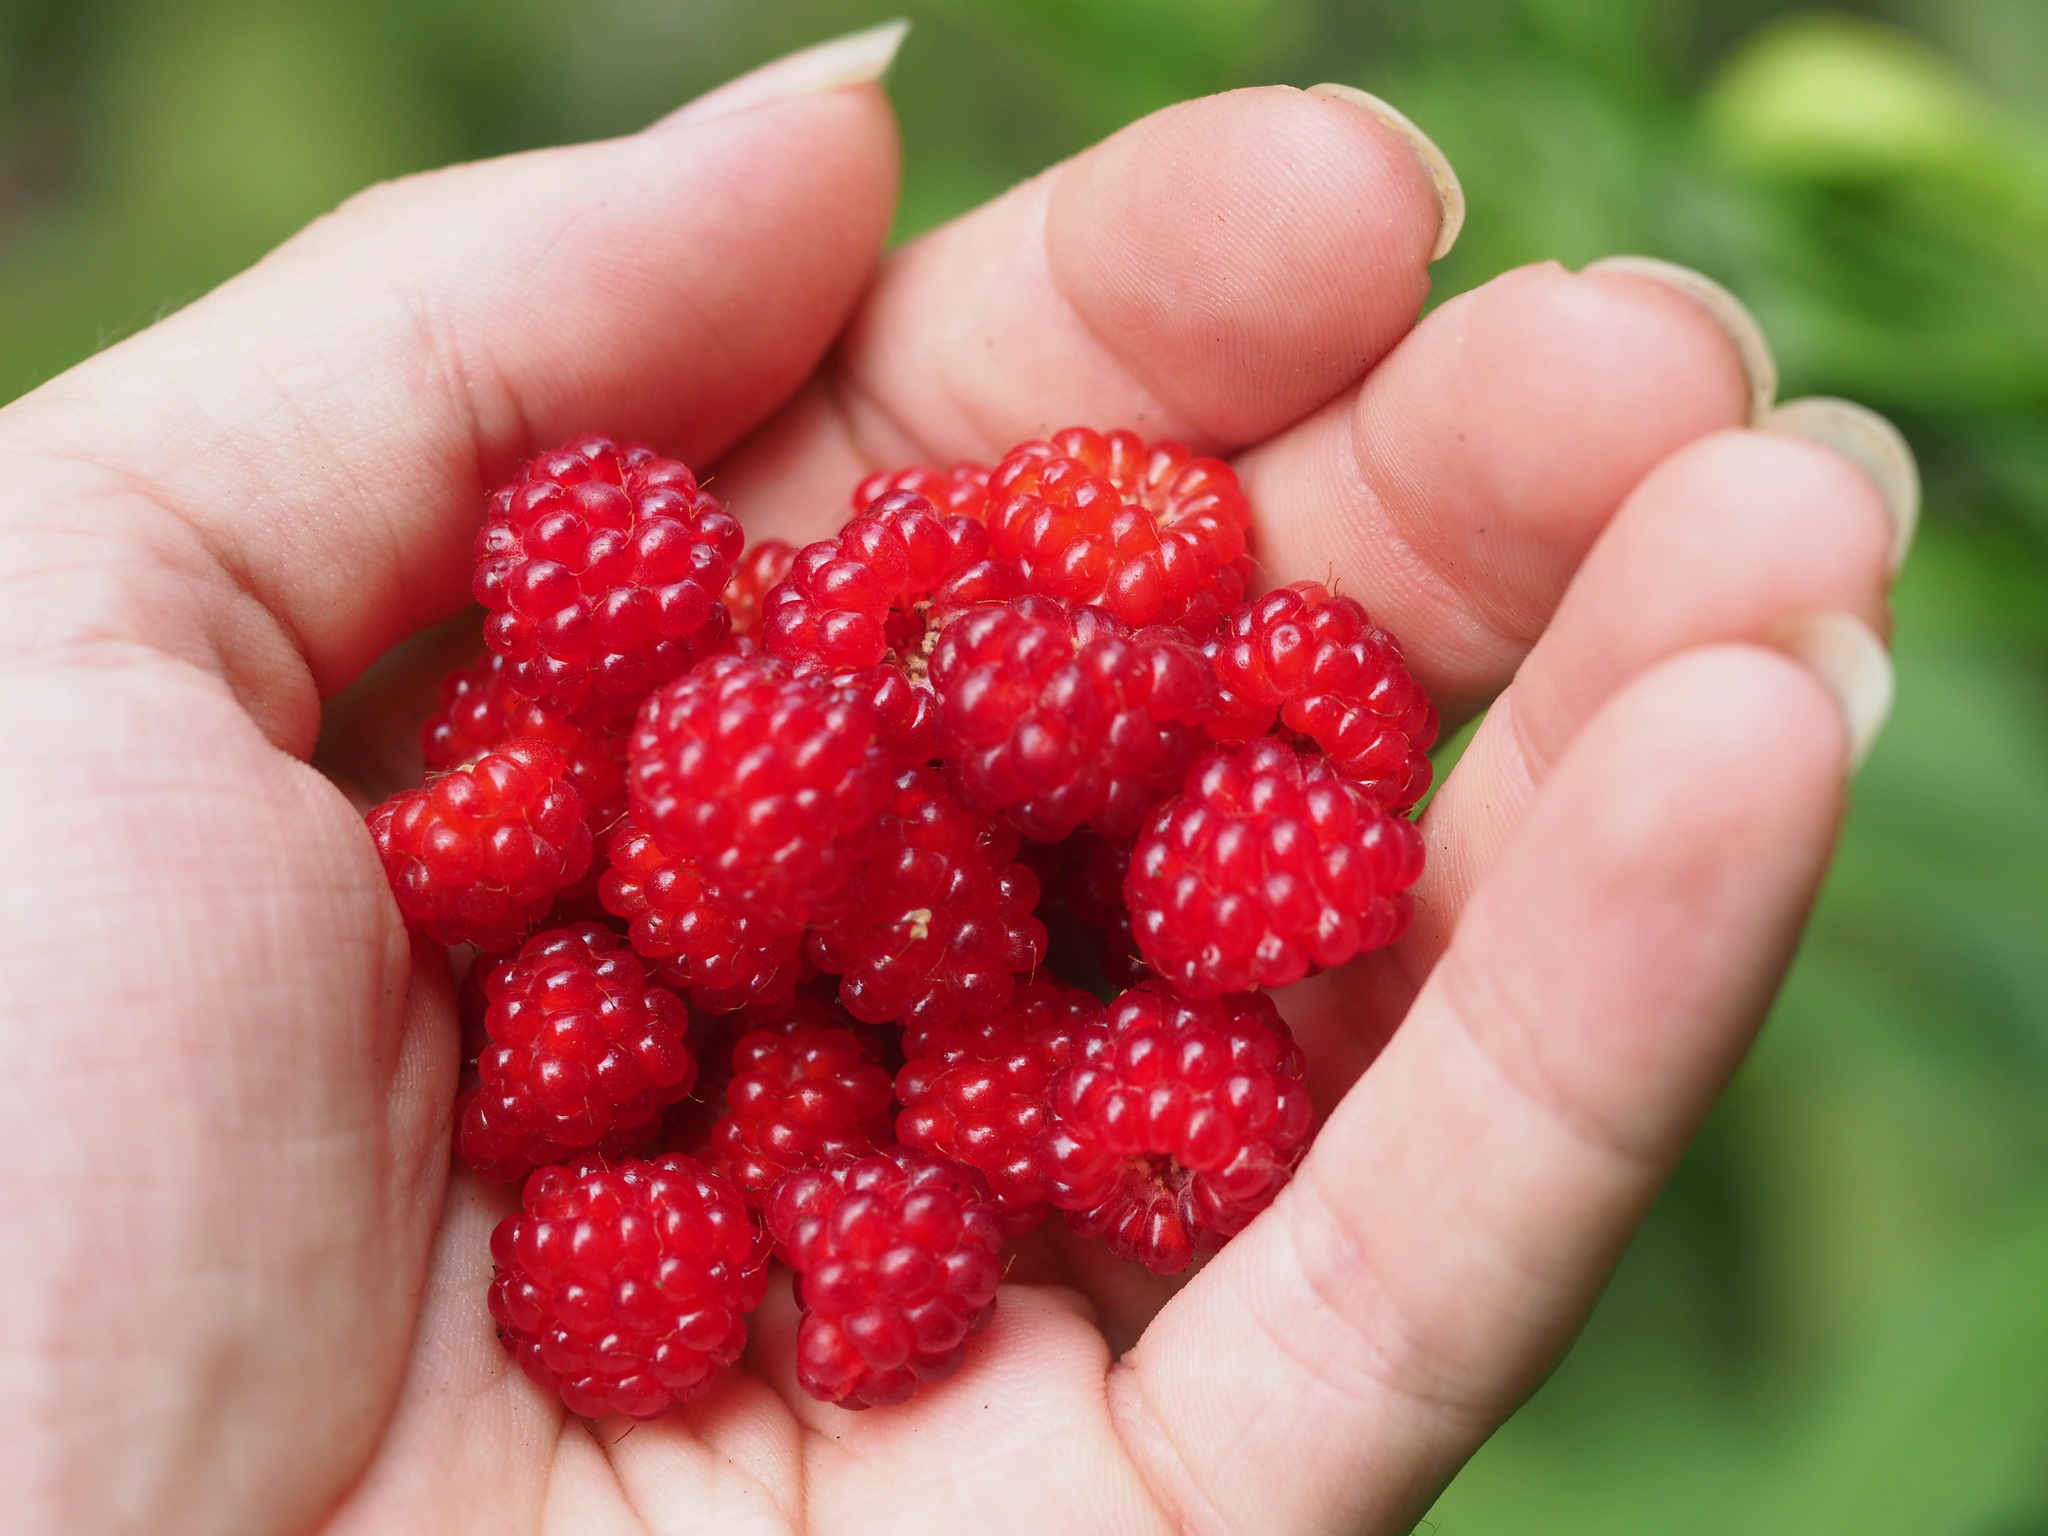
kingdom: Plantae
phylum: Tracheophyta
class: Magnoliopsida
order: Rosales
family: Rosaceae
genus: Rubus
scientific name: Rubus phoenicolasius
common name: Japanese wineberry
